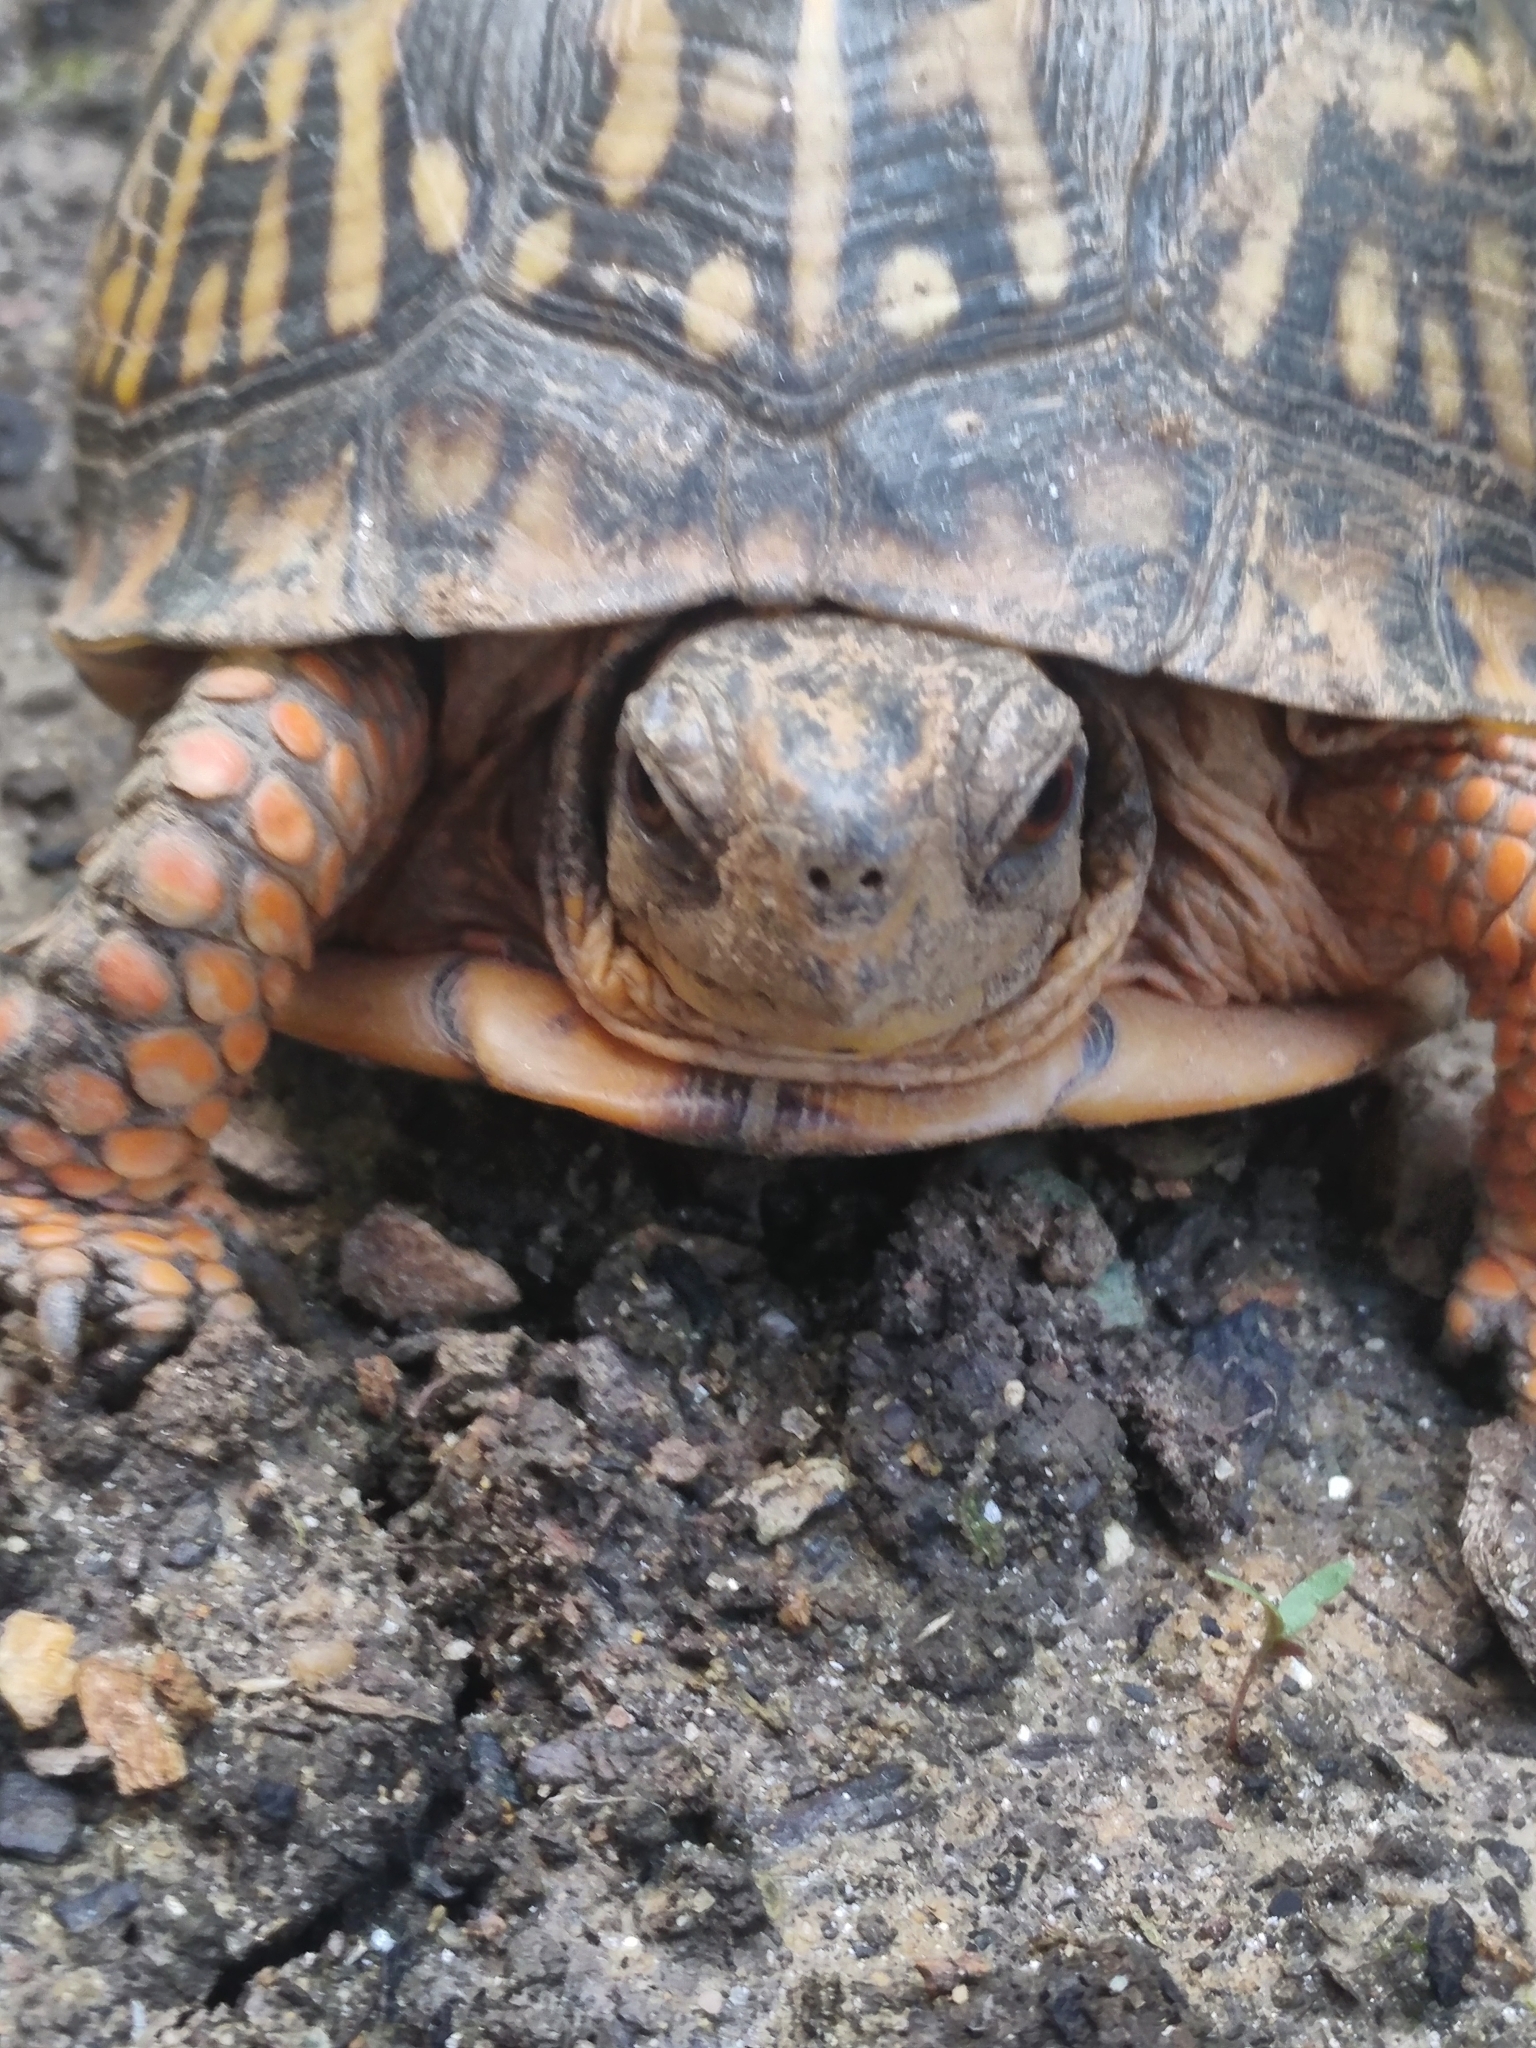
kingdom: Animalia
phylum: Chordata
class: Testudines
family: Emydidae
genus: Terrapene
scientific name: Terrapene carolina
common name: Common box turtle
